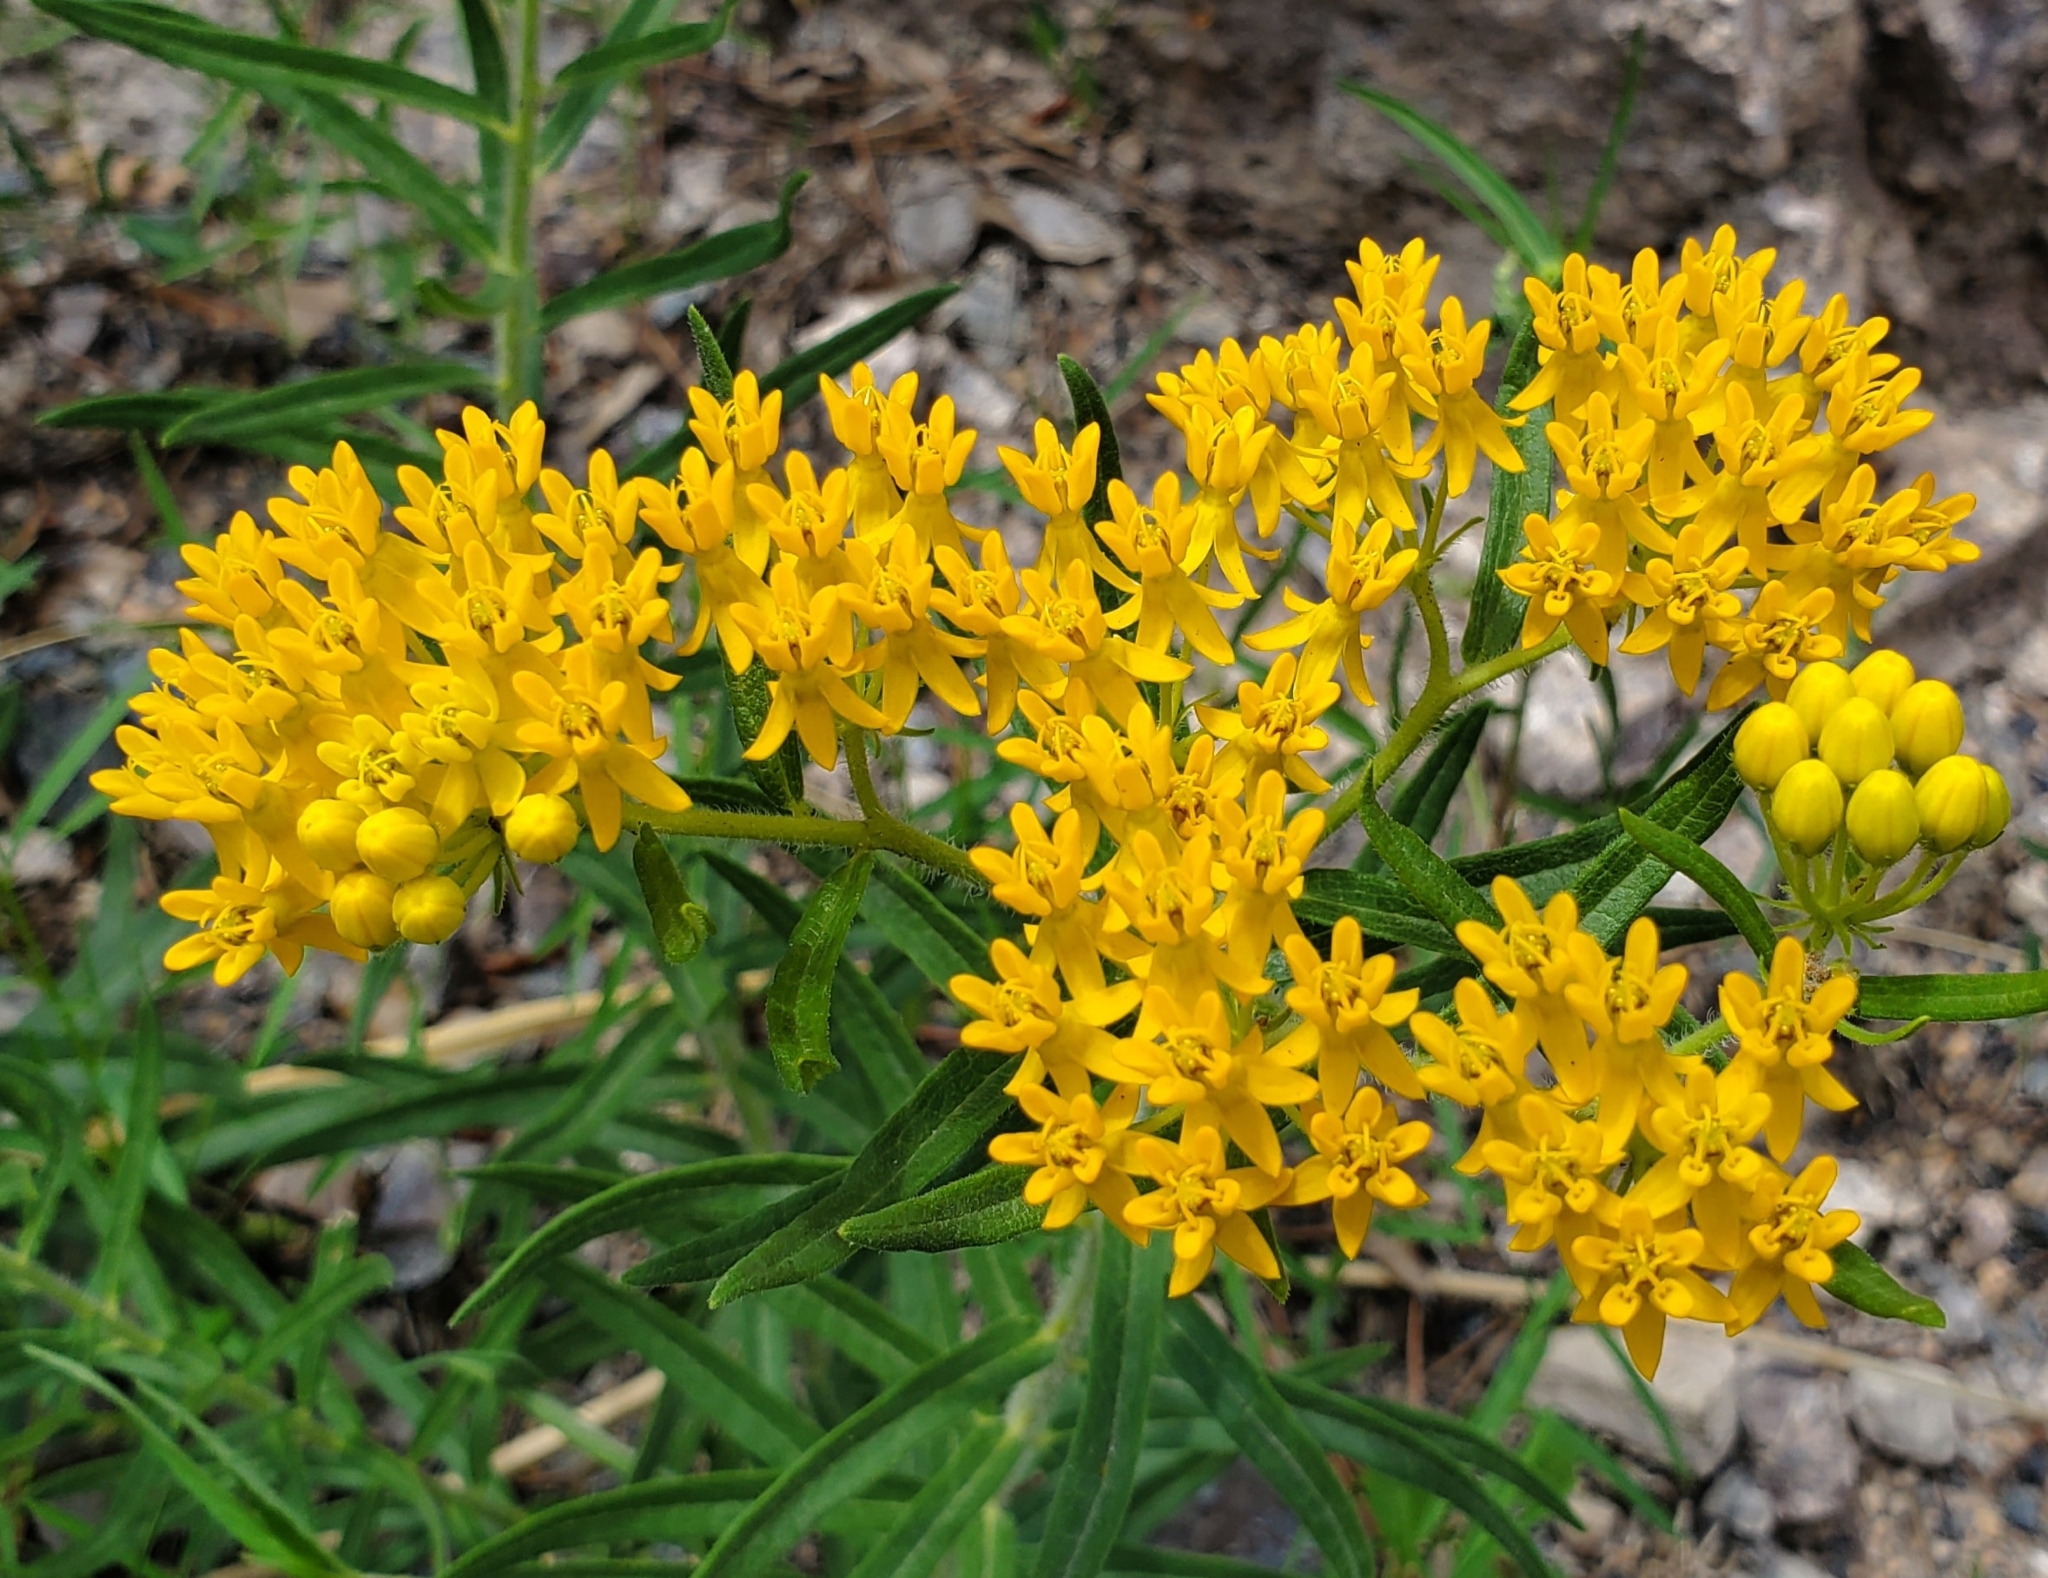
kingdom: Plantae
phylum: Tracheophyta
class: Magnoliopsida
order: Gentianales
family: Apocynaceae
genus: Asclepias
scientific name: Asclepias tuberosa
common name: Butterfly milkweed
